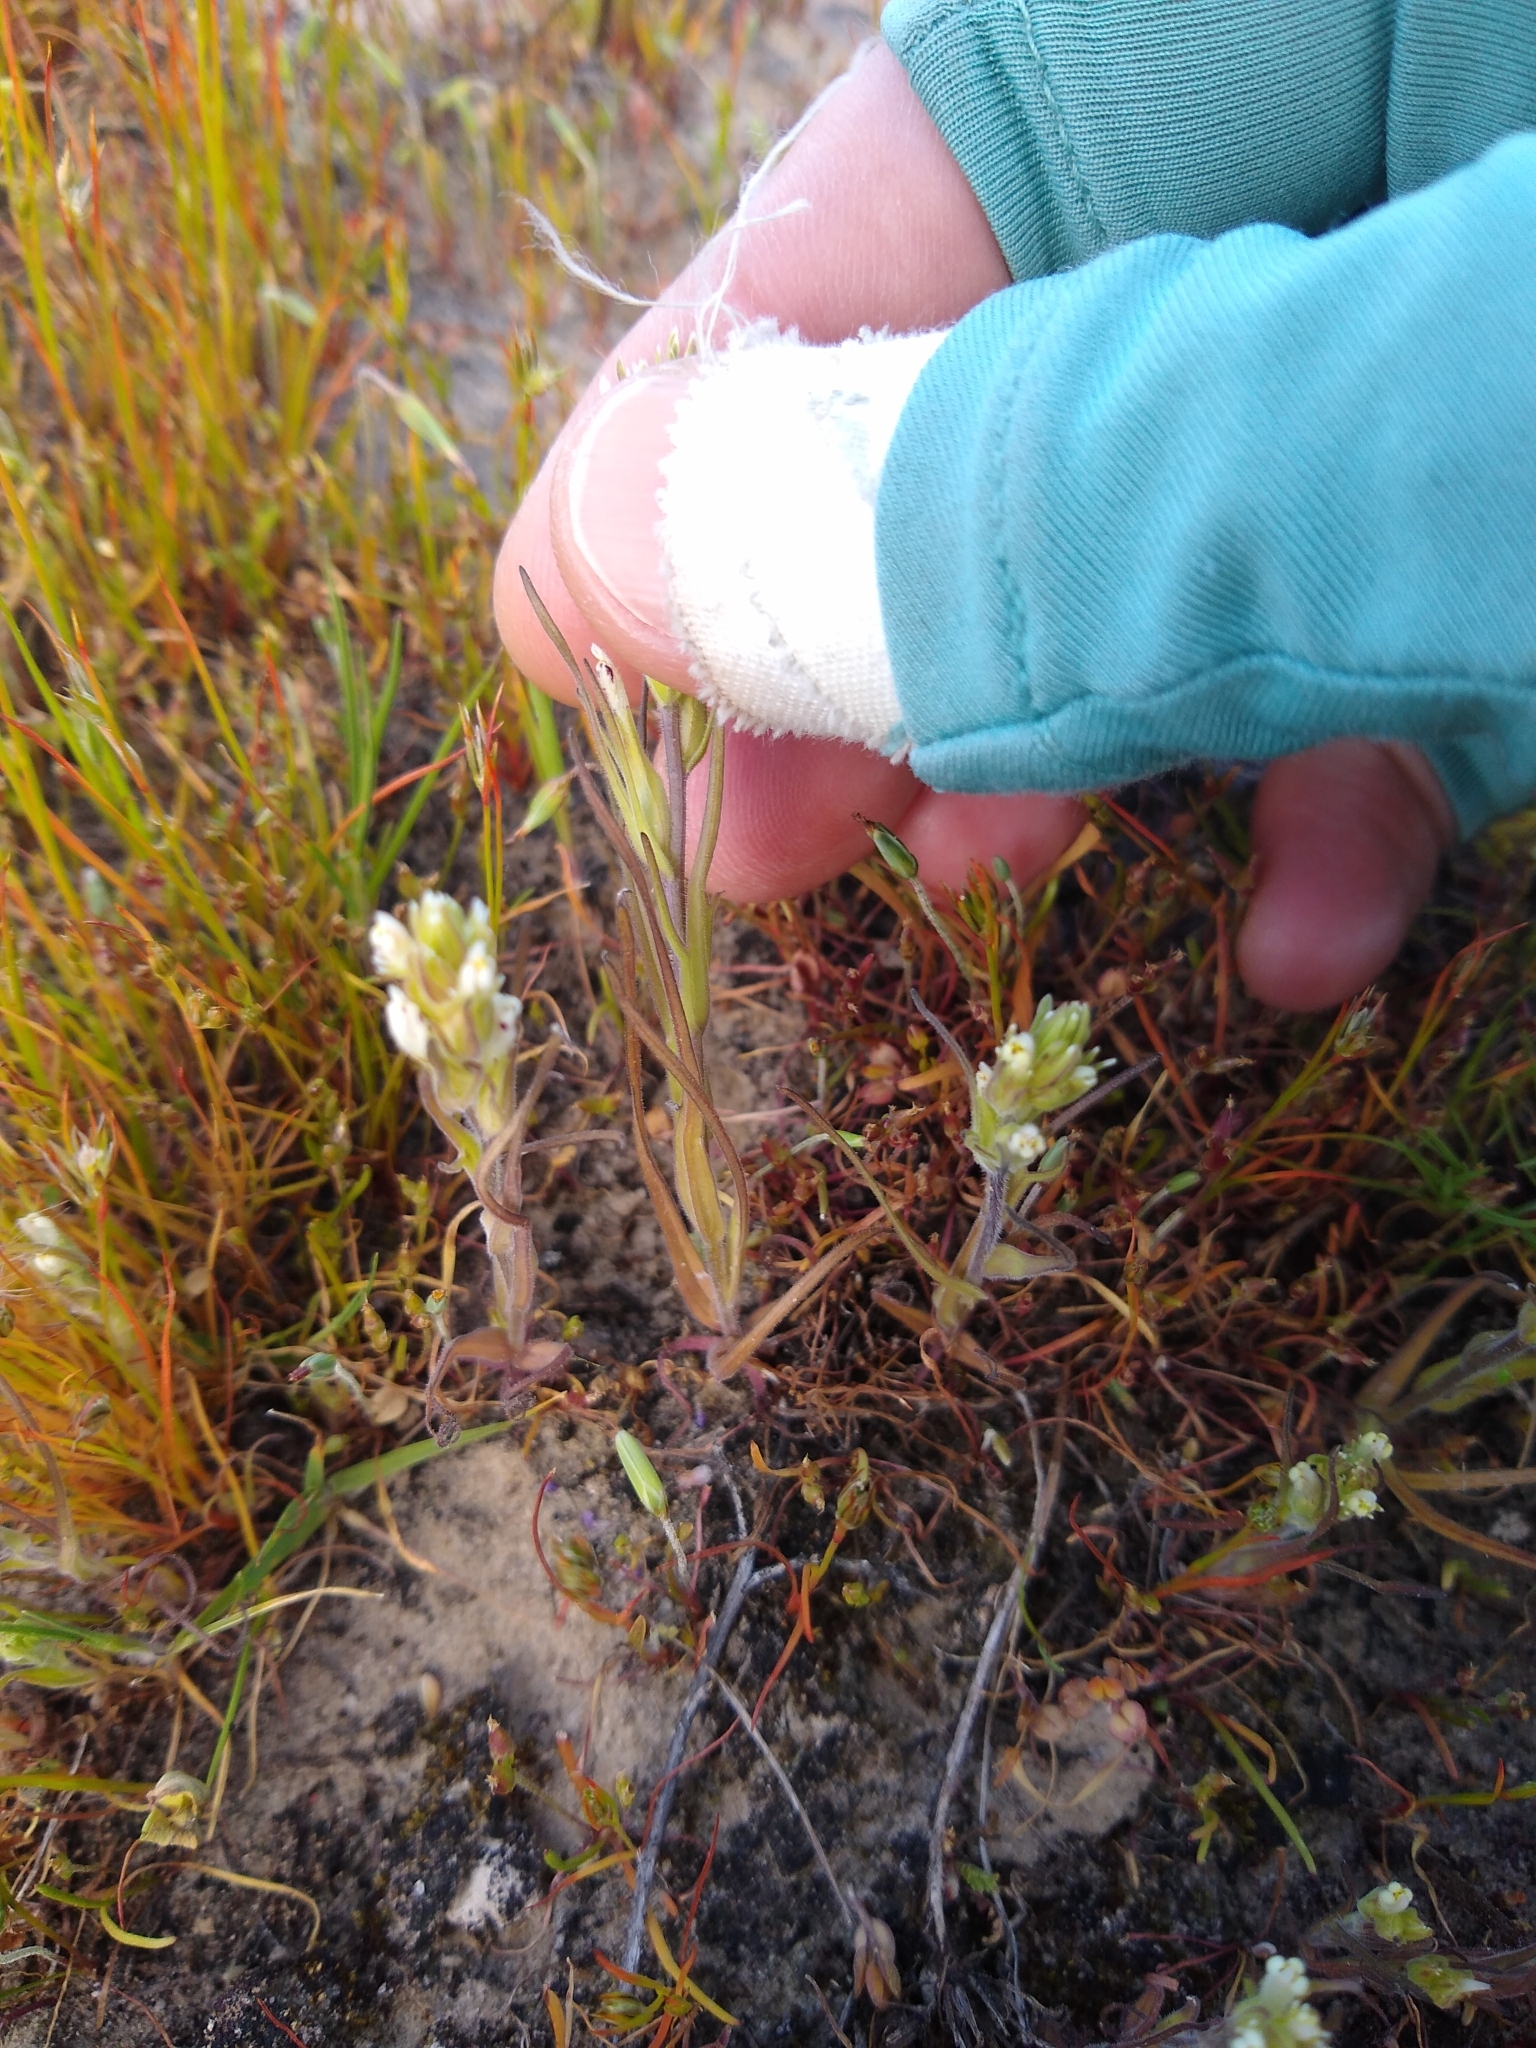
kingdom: Plantae
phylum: Tracheophyta
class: Magnoliopsida
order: Lamiales
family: Orobanchaceae
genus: Castilleja
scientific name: Castilleja attenuata
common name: Valley tassels
